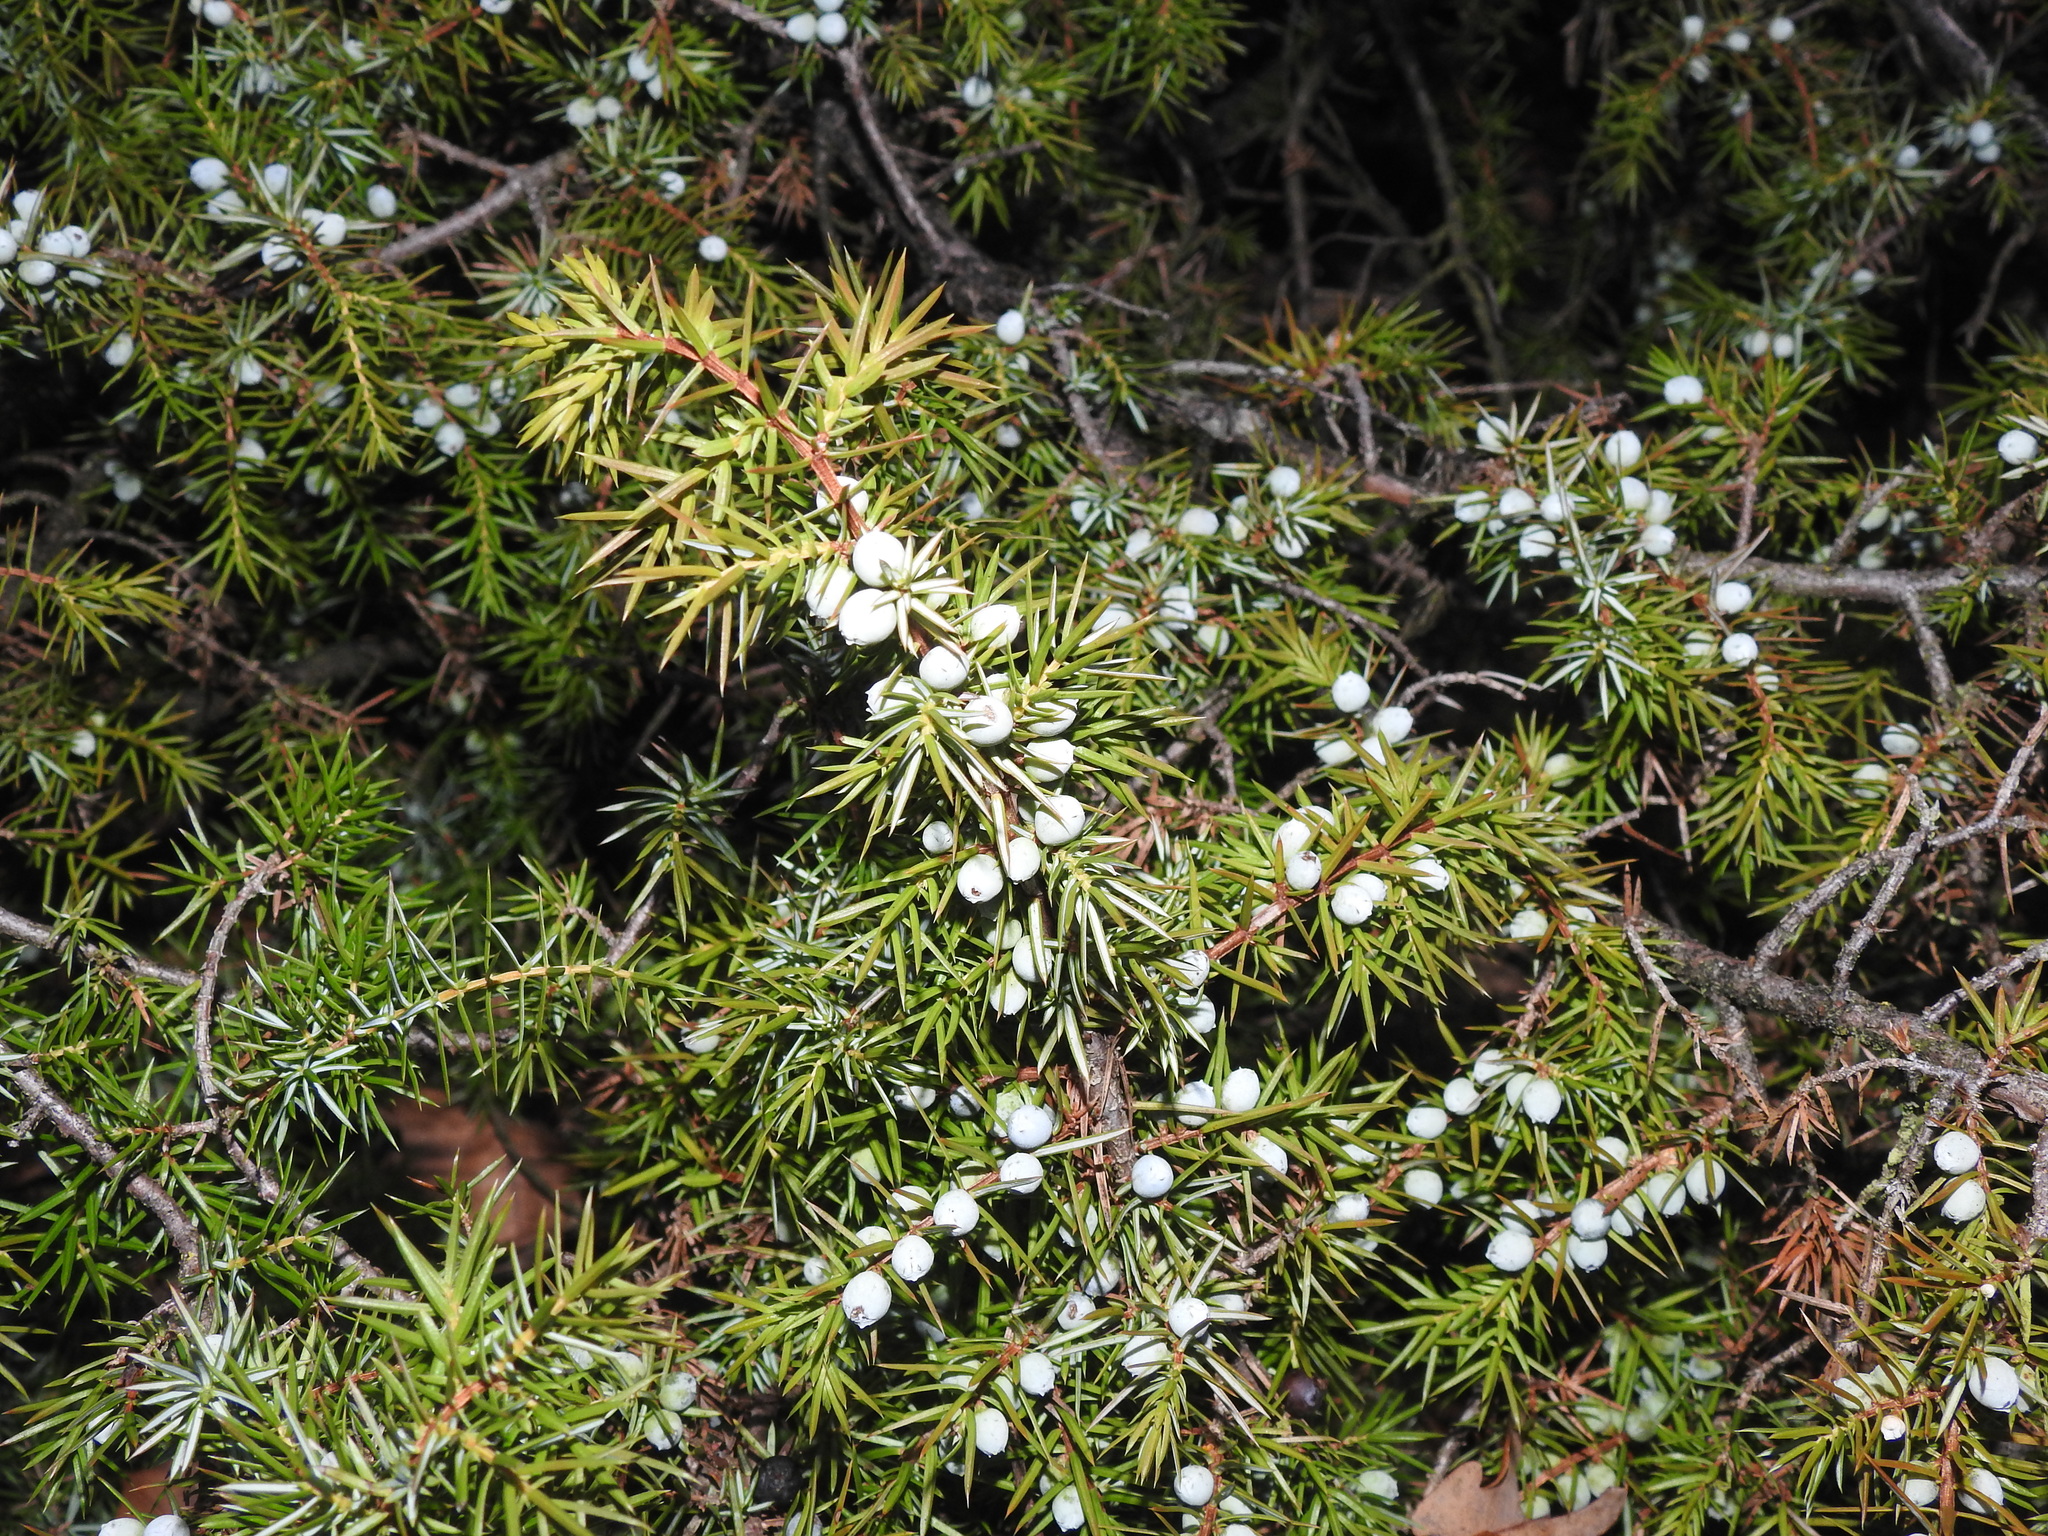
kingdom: Plantae
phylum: Tracheophyta
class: Pinopsida
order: Pinales
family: Cupressaceae
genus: Juniperus
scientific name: Juniperus communis
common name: Common juniper
